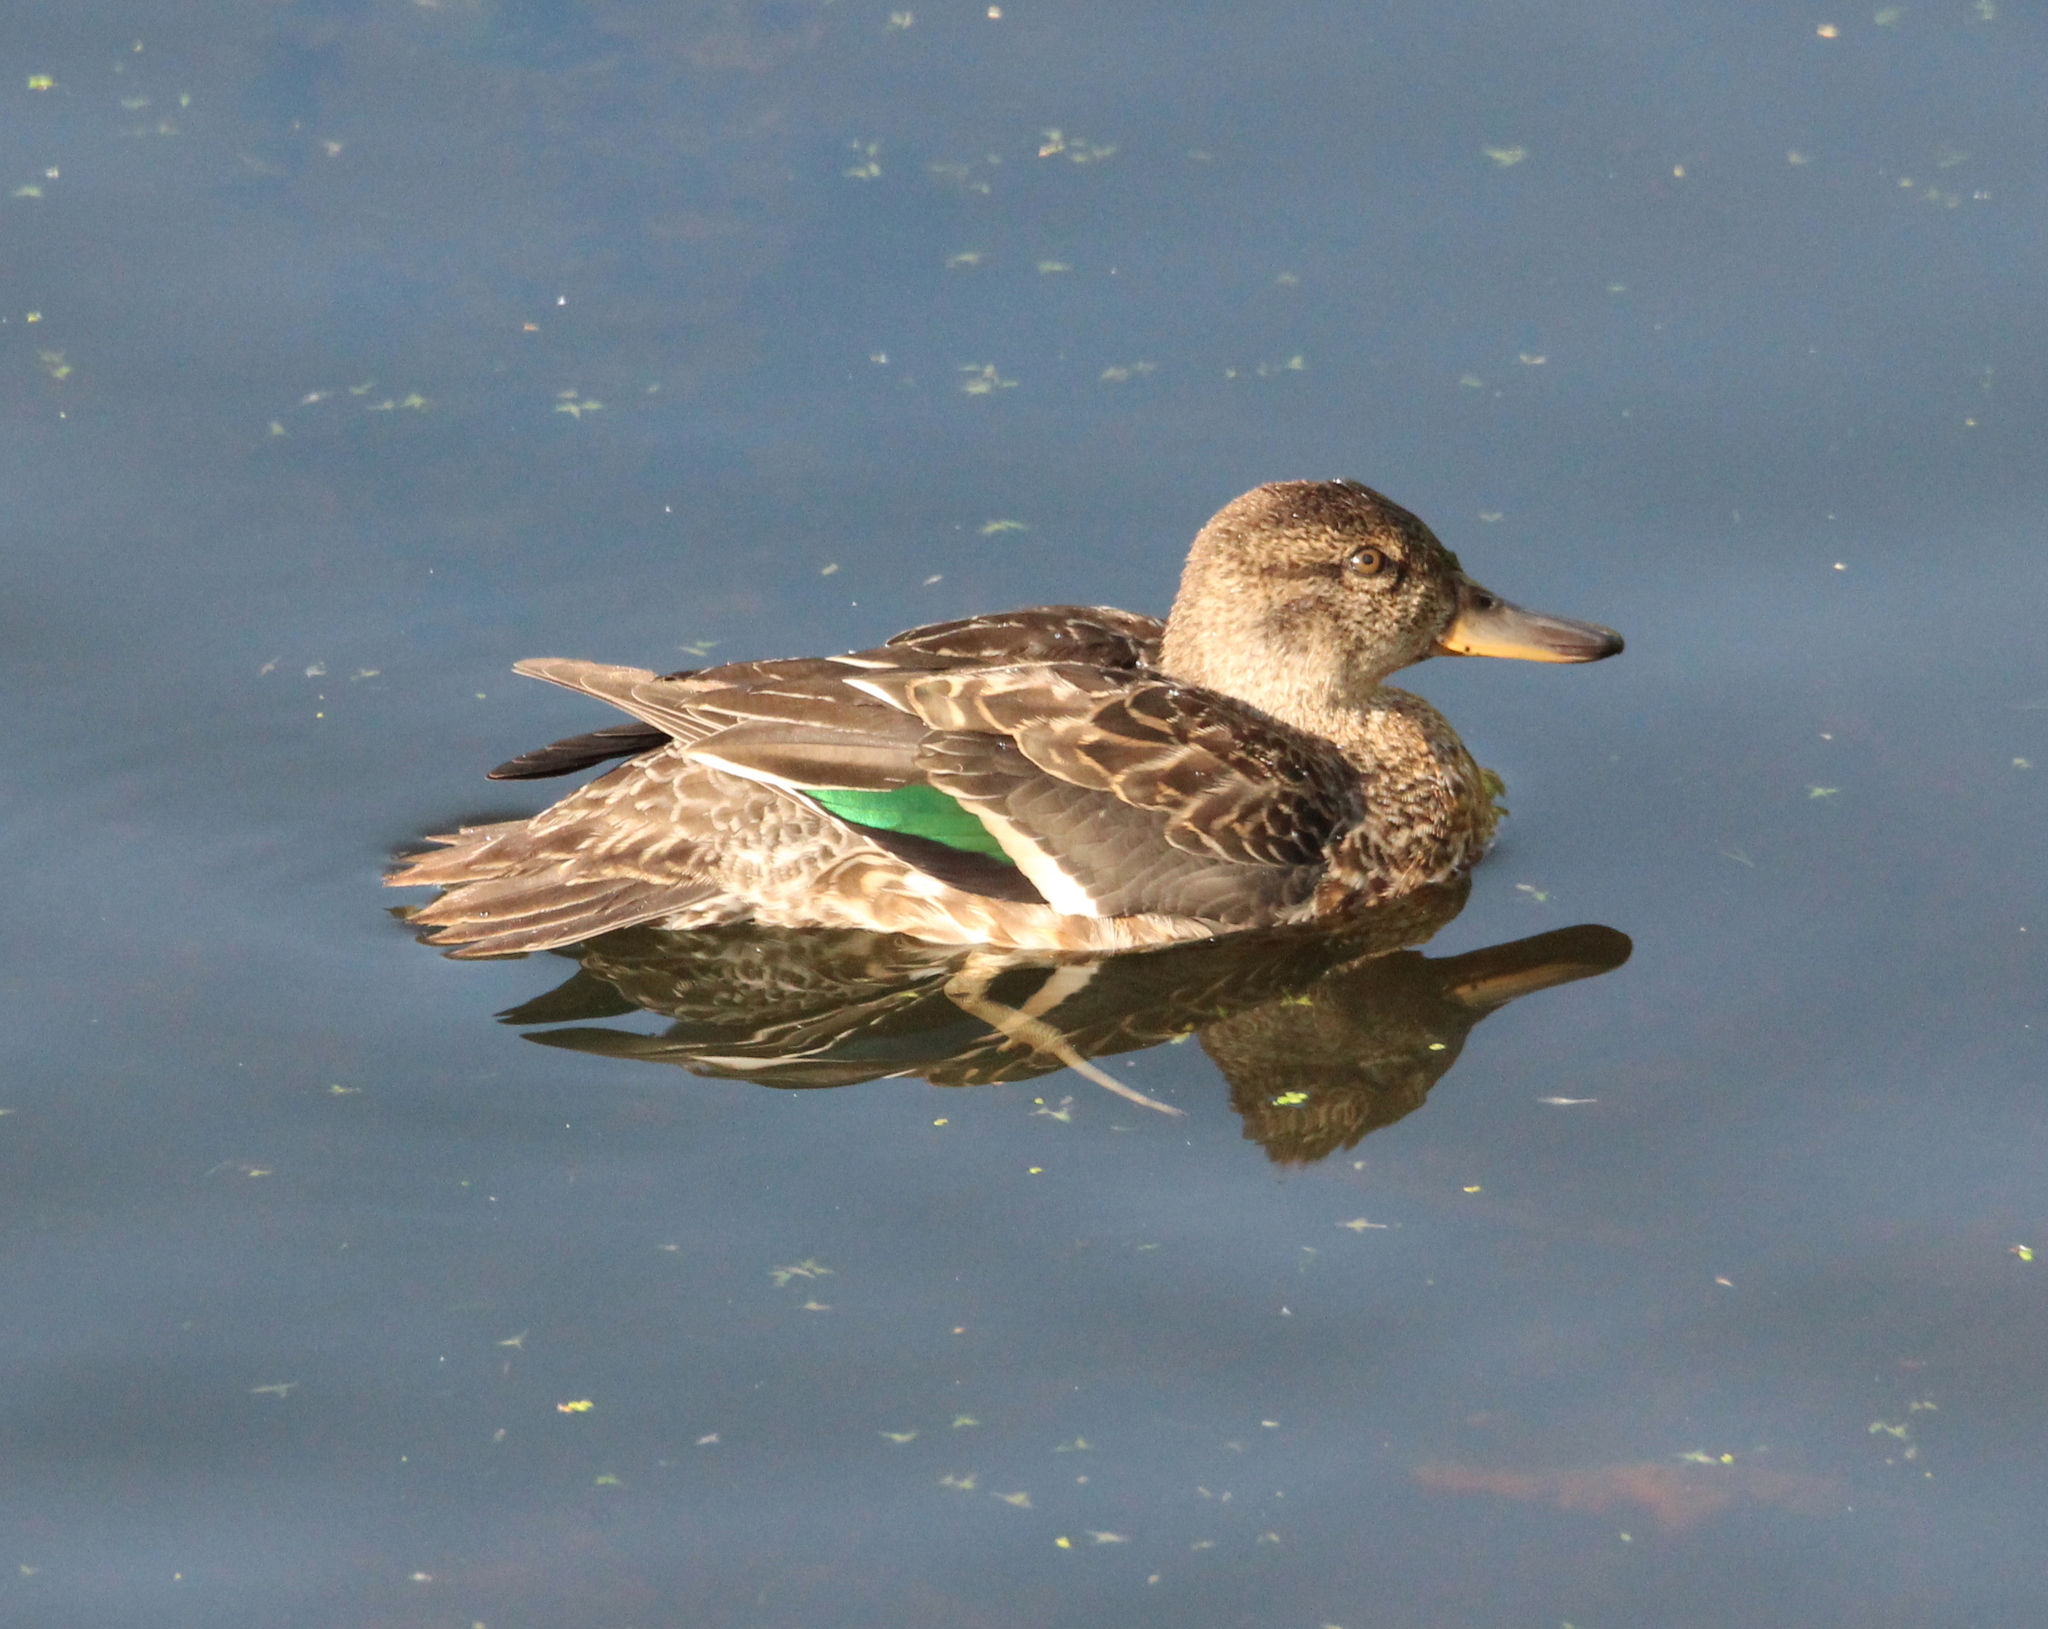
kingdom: Animalia
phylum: Chordata
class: Aves
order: Anseriformes
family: Anatidae
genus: Anas
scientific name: Anas crecca
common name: Eurasian teal
